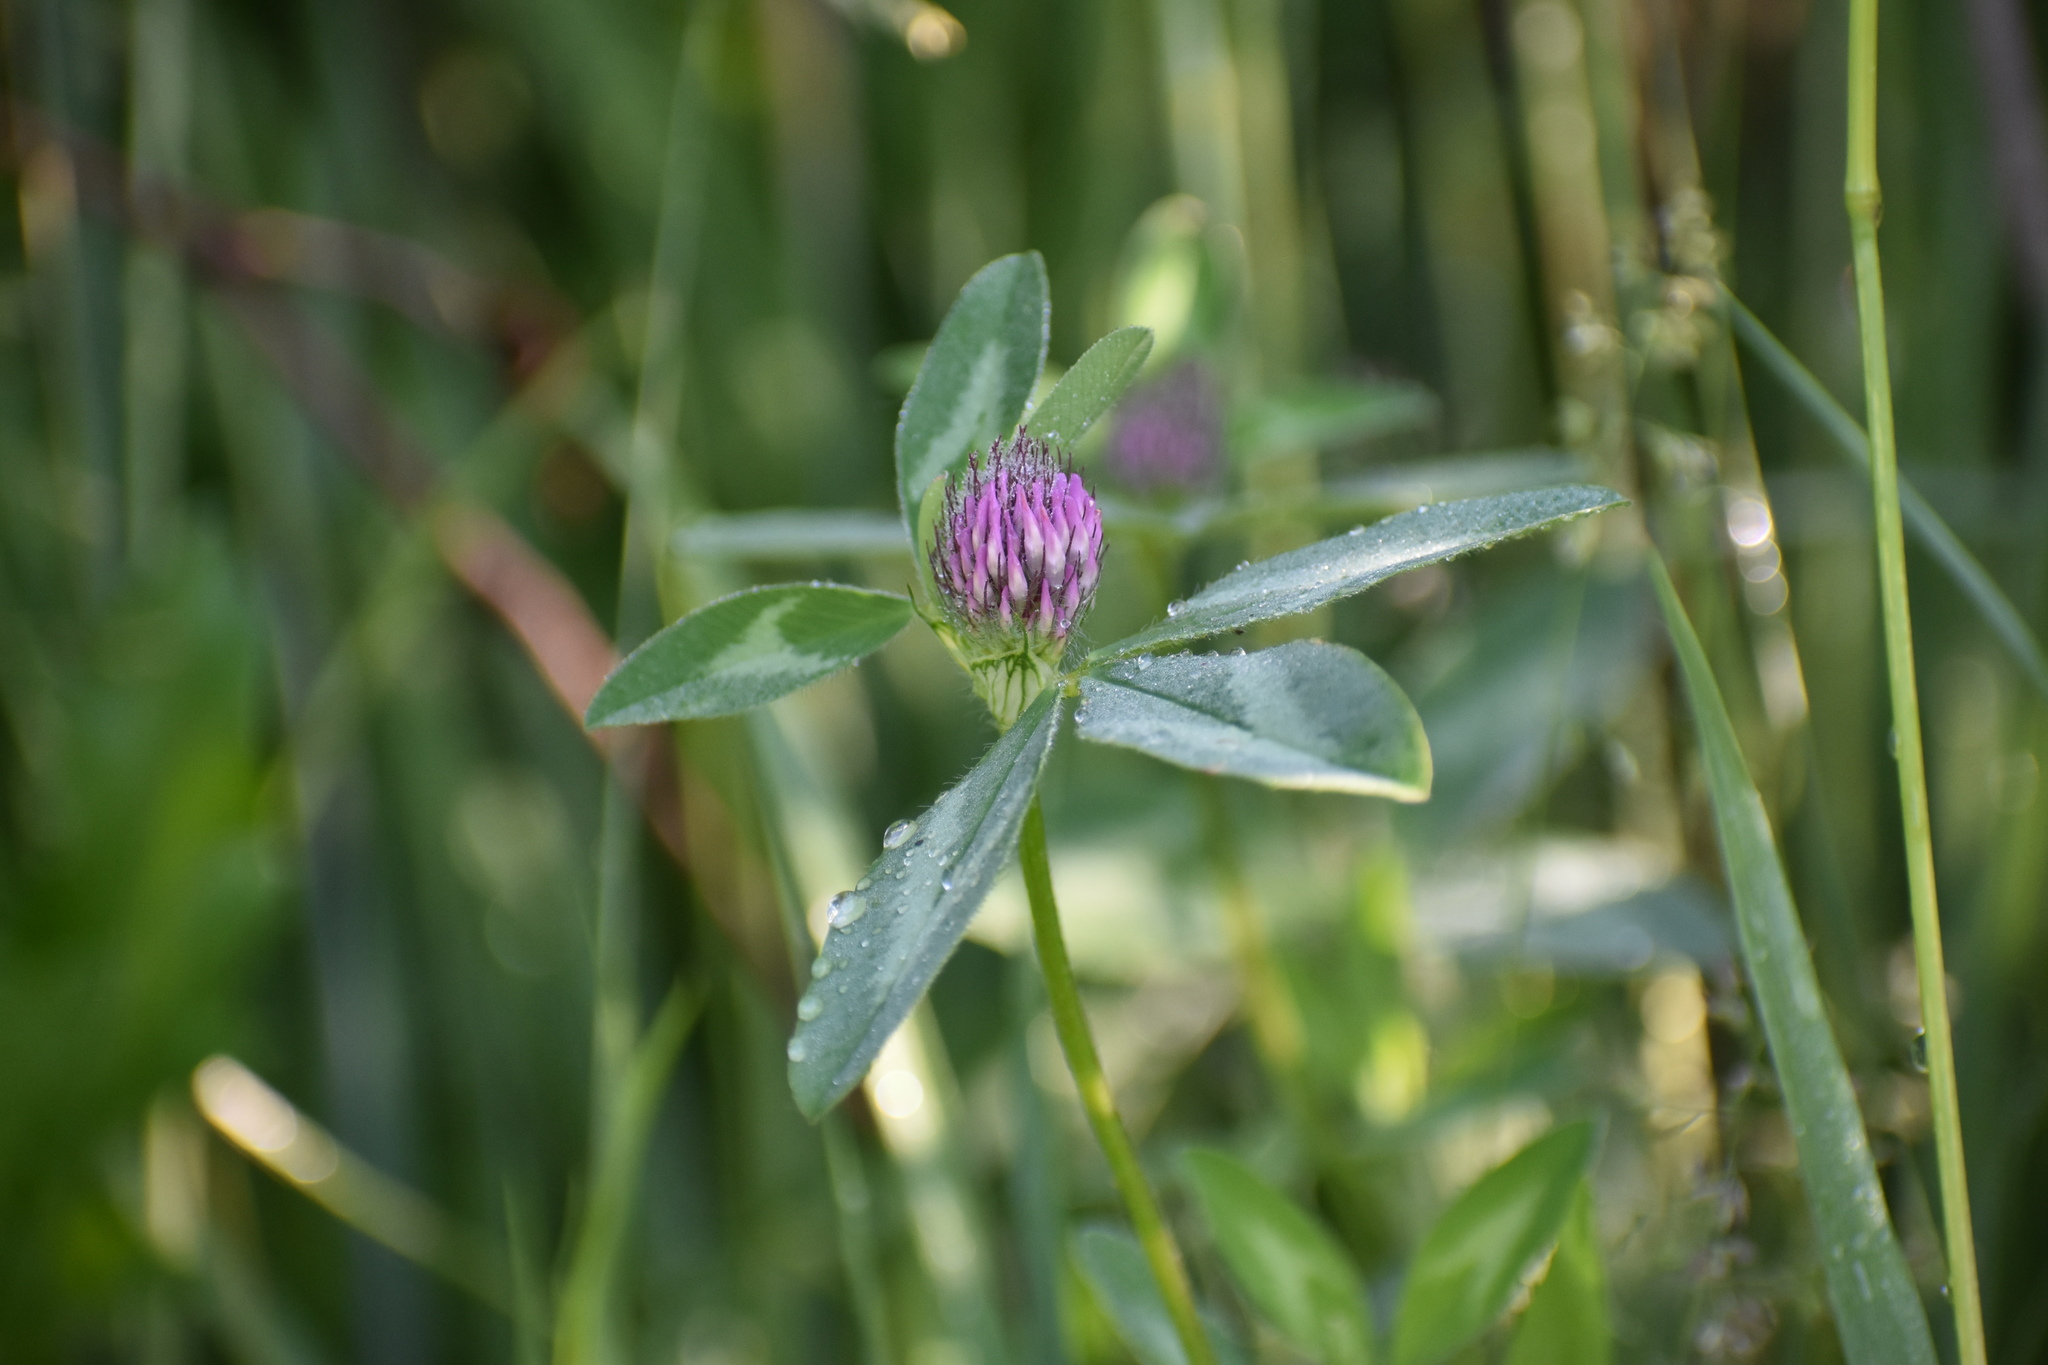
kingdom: Plantae
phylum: Tracheophyta
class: Magnoliopsida
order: Fabales
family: Fabaceae
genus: Trifolium
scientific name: Trifolium pratense
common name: Red clover
